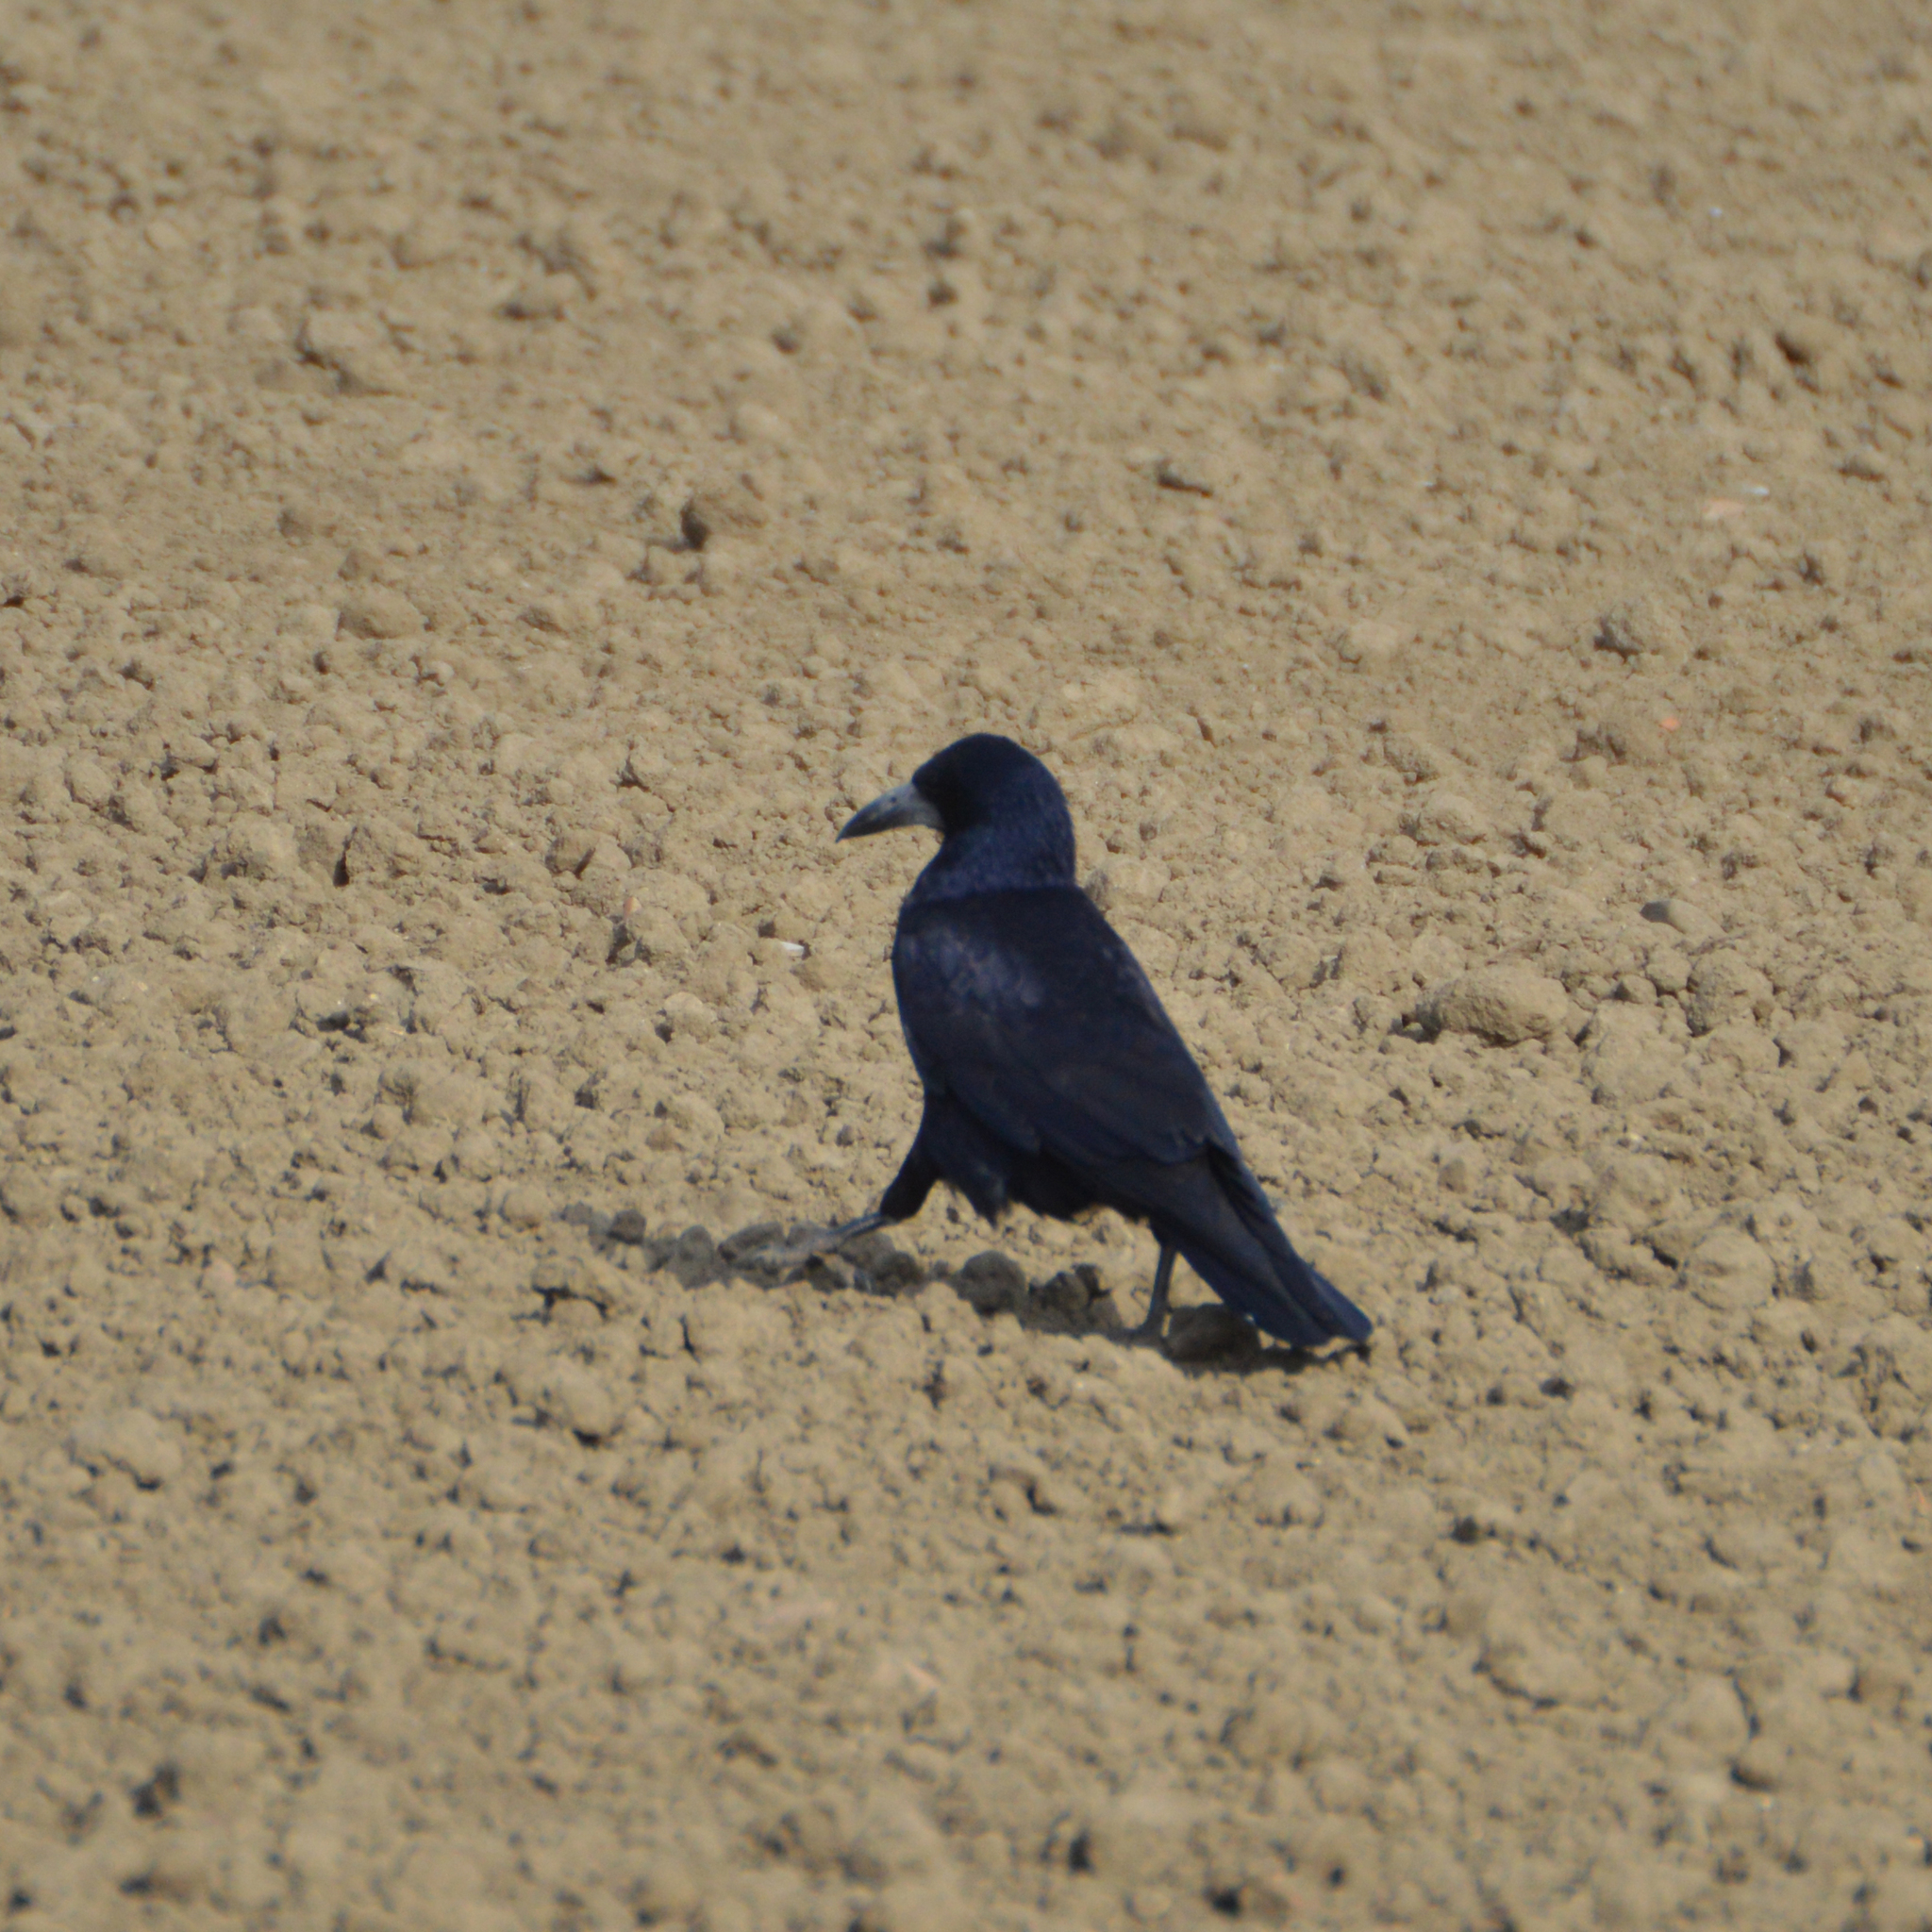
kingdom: Animalia
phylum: Chordata
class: Aves
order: Passeriformes
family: Corvidae
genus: Corvus
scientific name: Corvus frugilegus
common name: Rook
